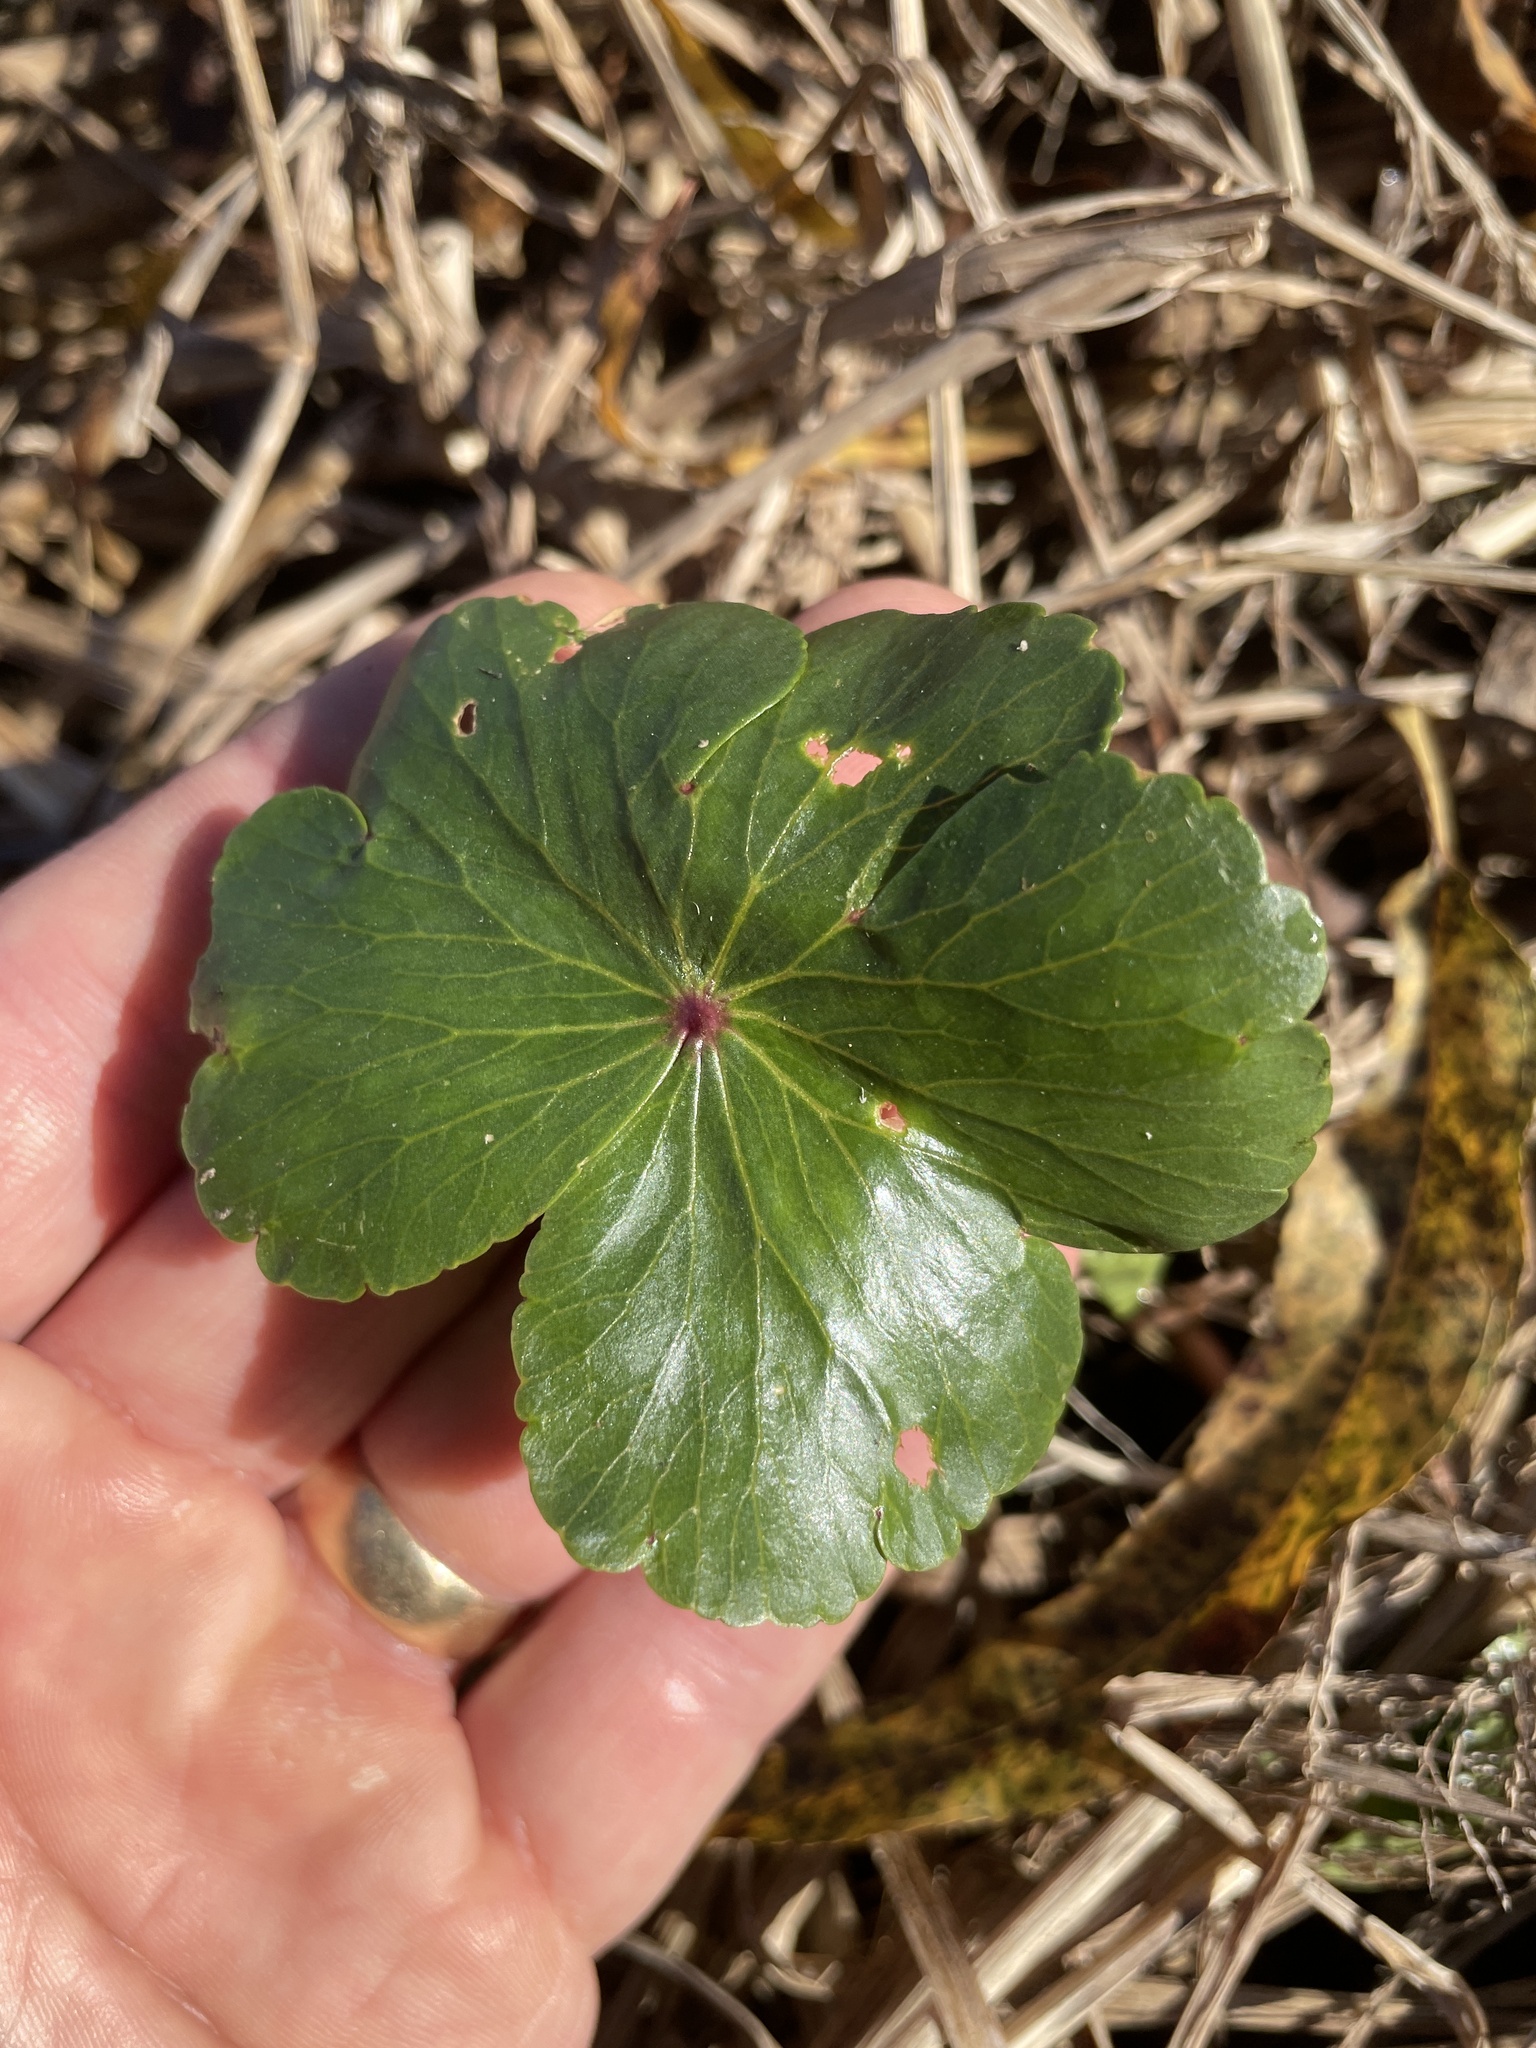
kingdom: Plantae
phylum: Tracheophyta
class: Magnoliopsida
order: Apiales
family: Araliaceae
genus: Hydrocotyle
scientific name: Hydrocotyle ranunculoides
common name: Floating pennywort
